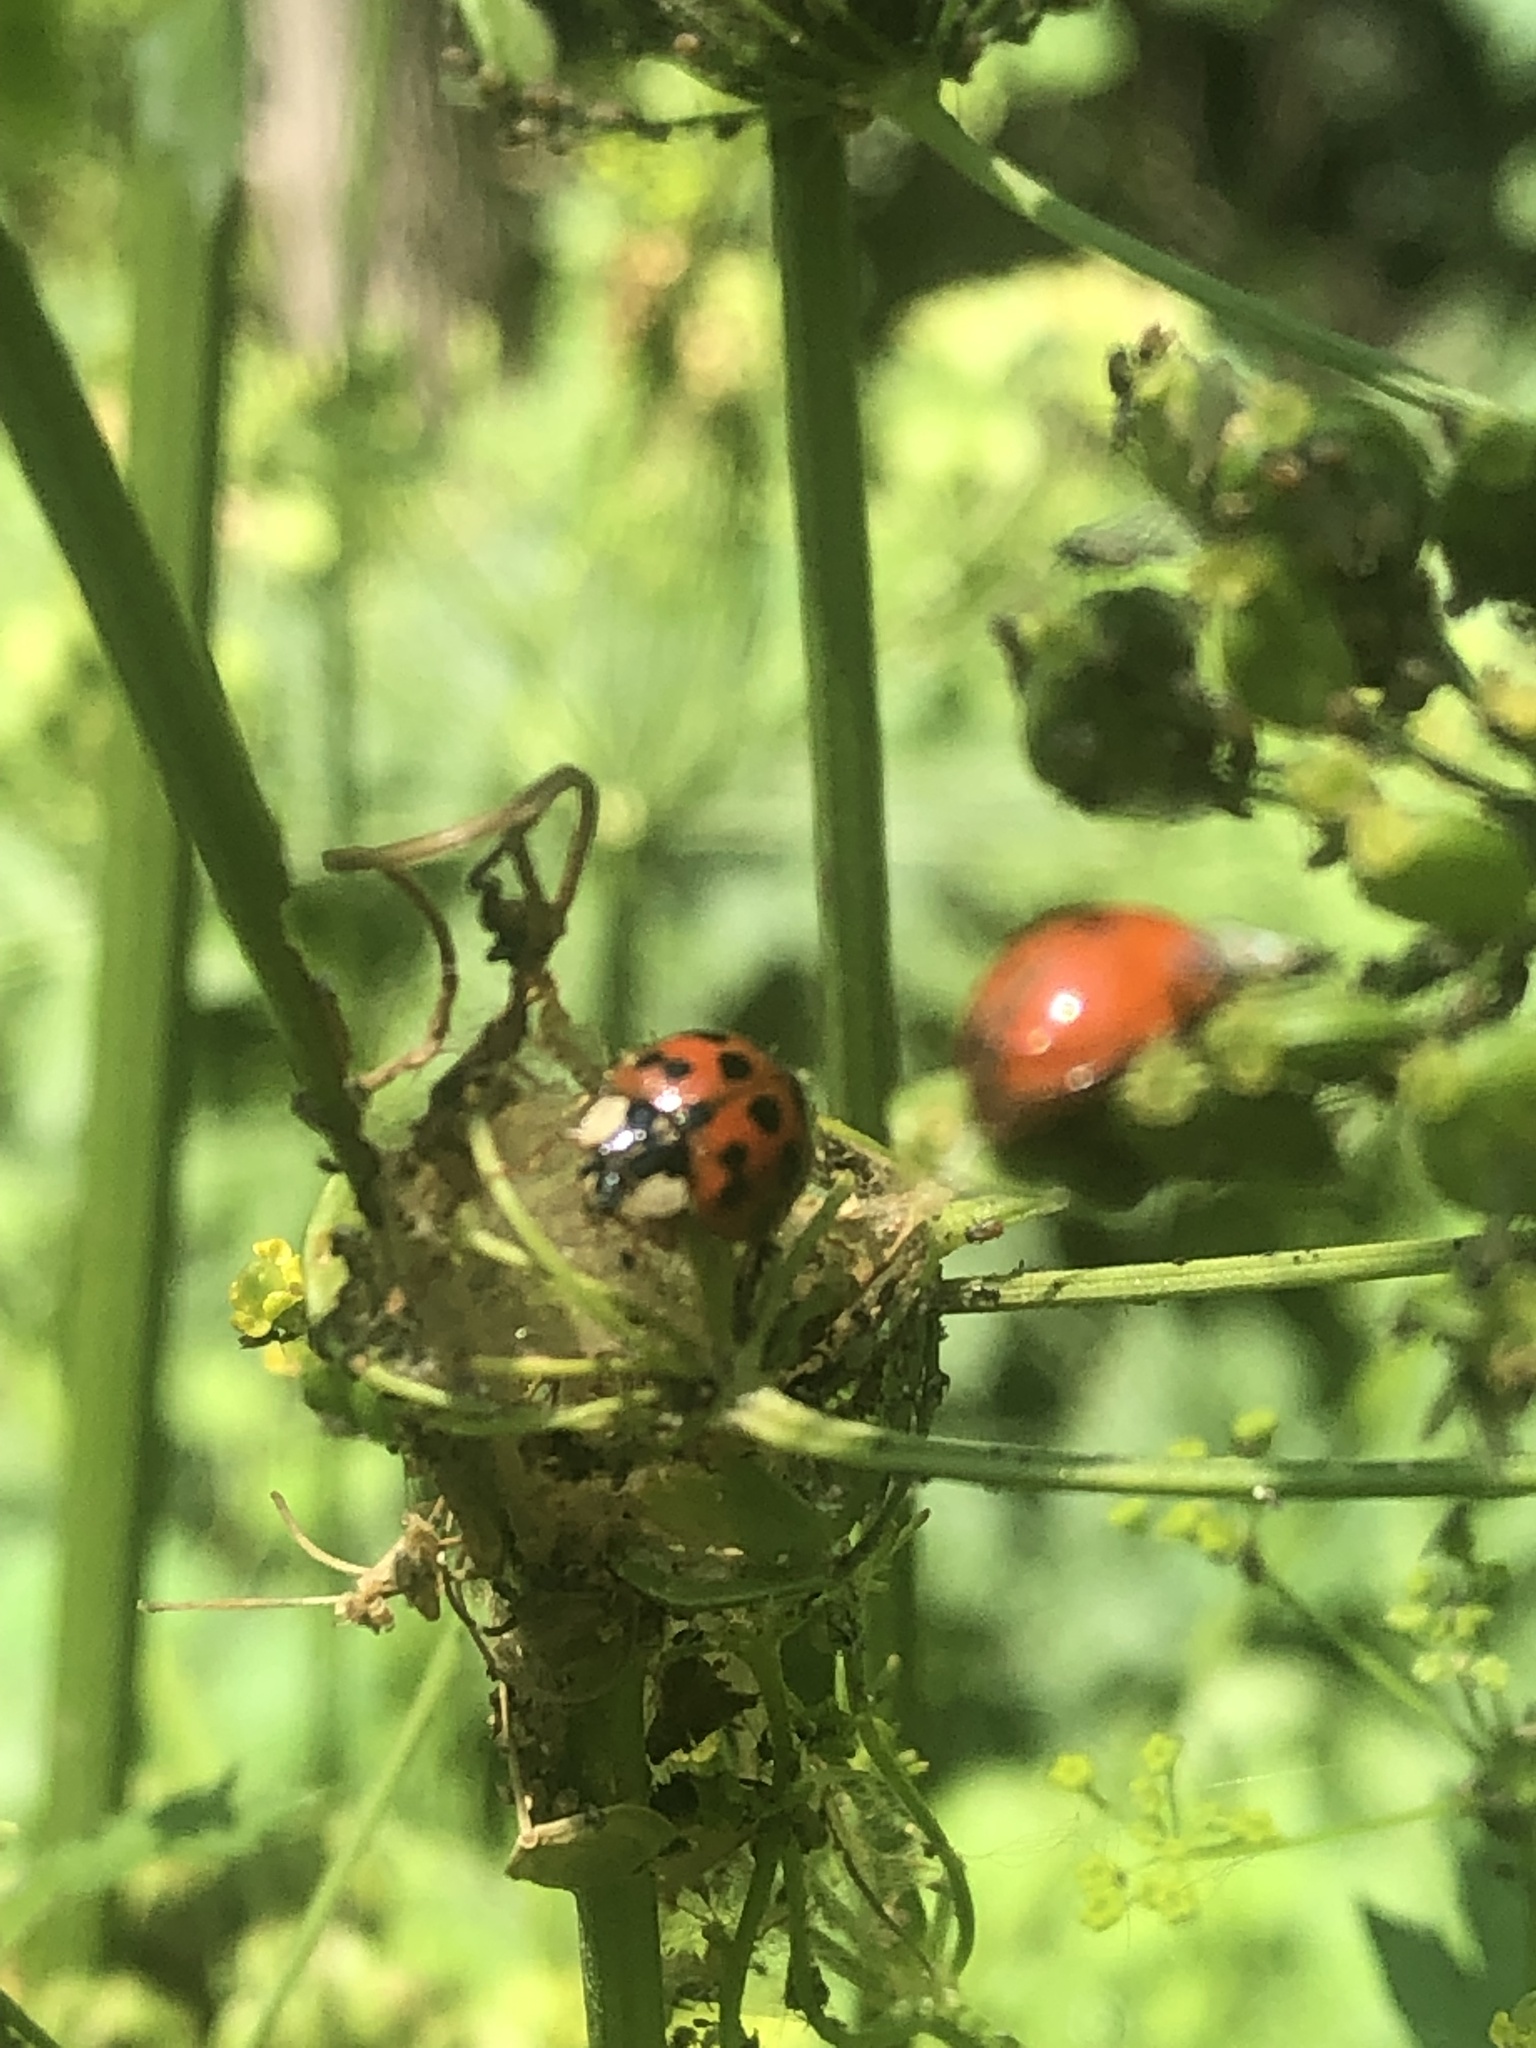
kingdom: Animalia
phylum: Arthropoda
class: Insecta
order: Coleoptera
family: Coccinellidae
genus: Harmonia
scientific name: Harmonia axyridis
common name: Harlequin ladybird
